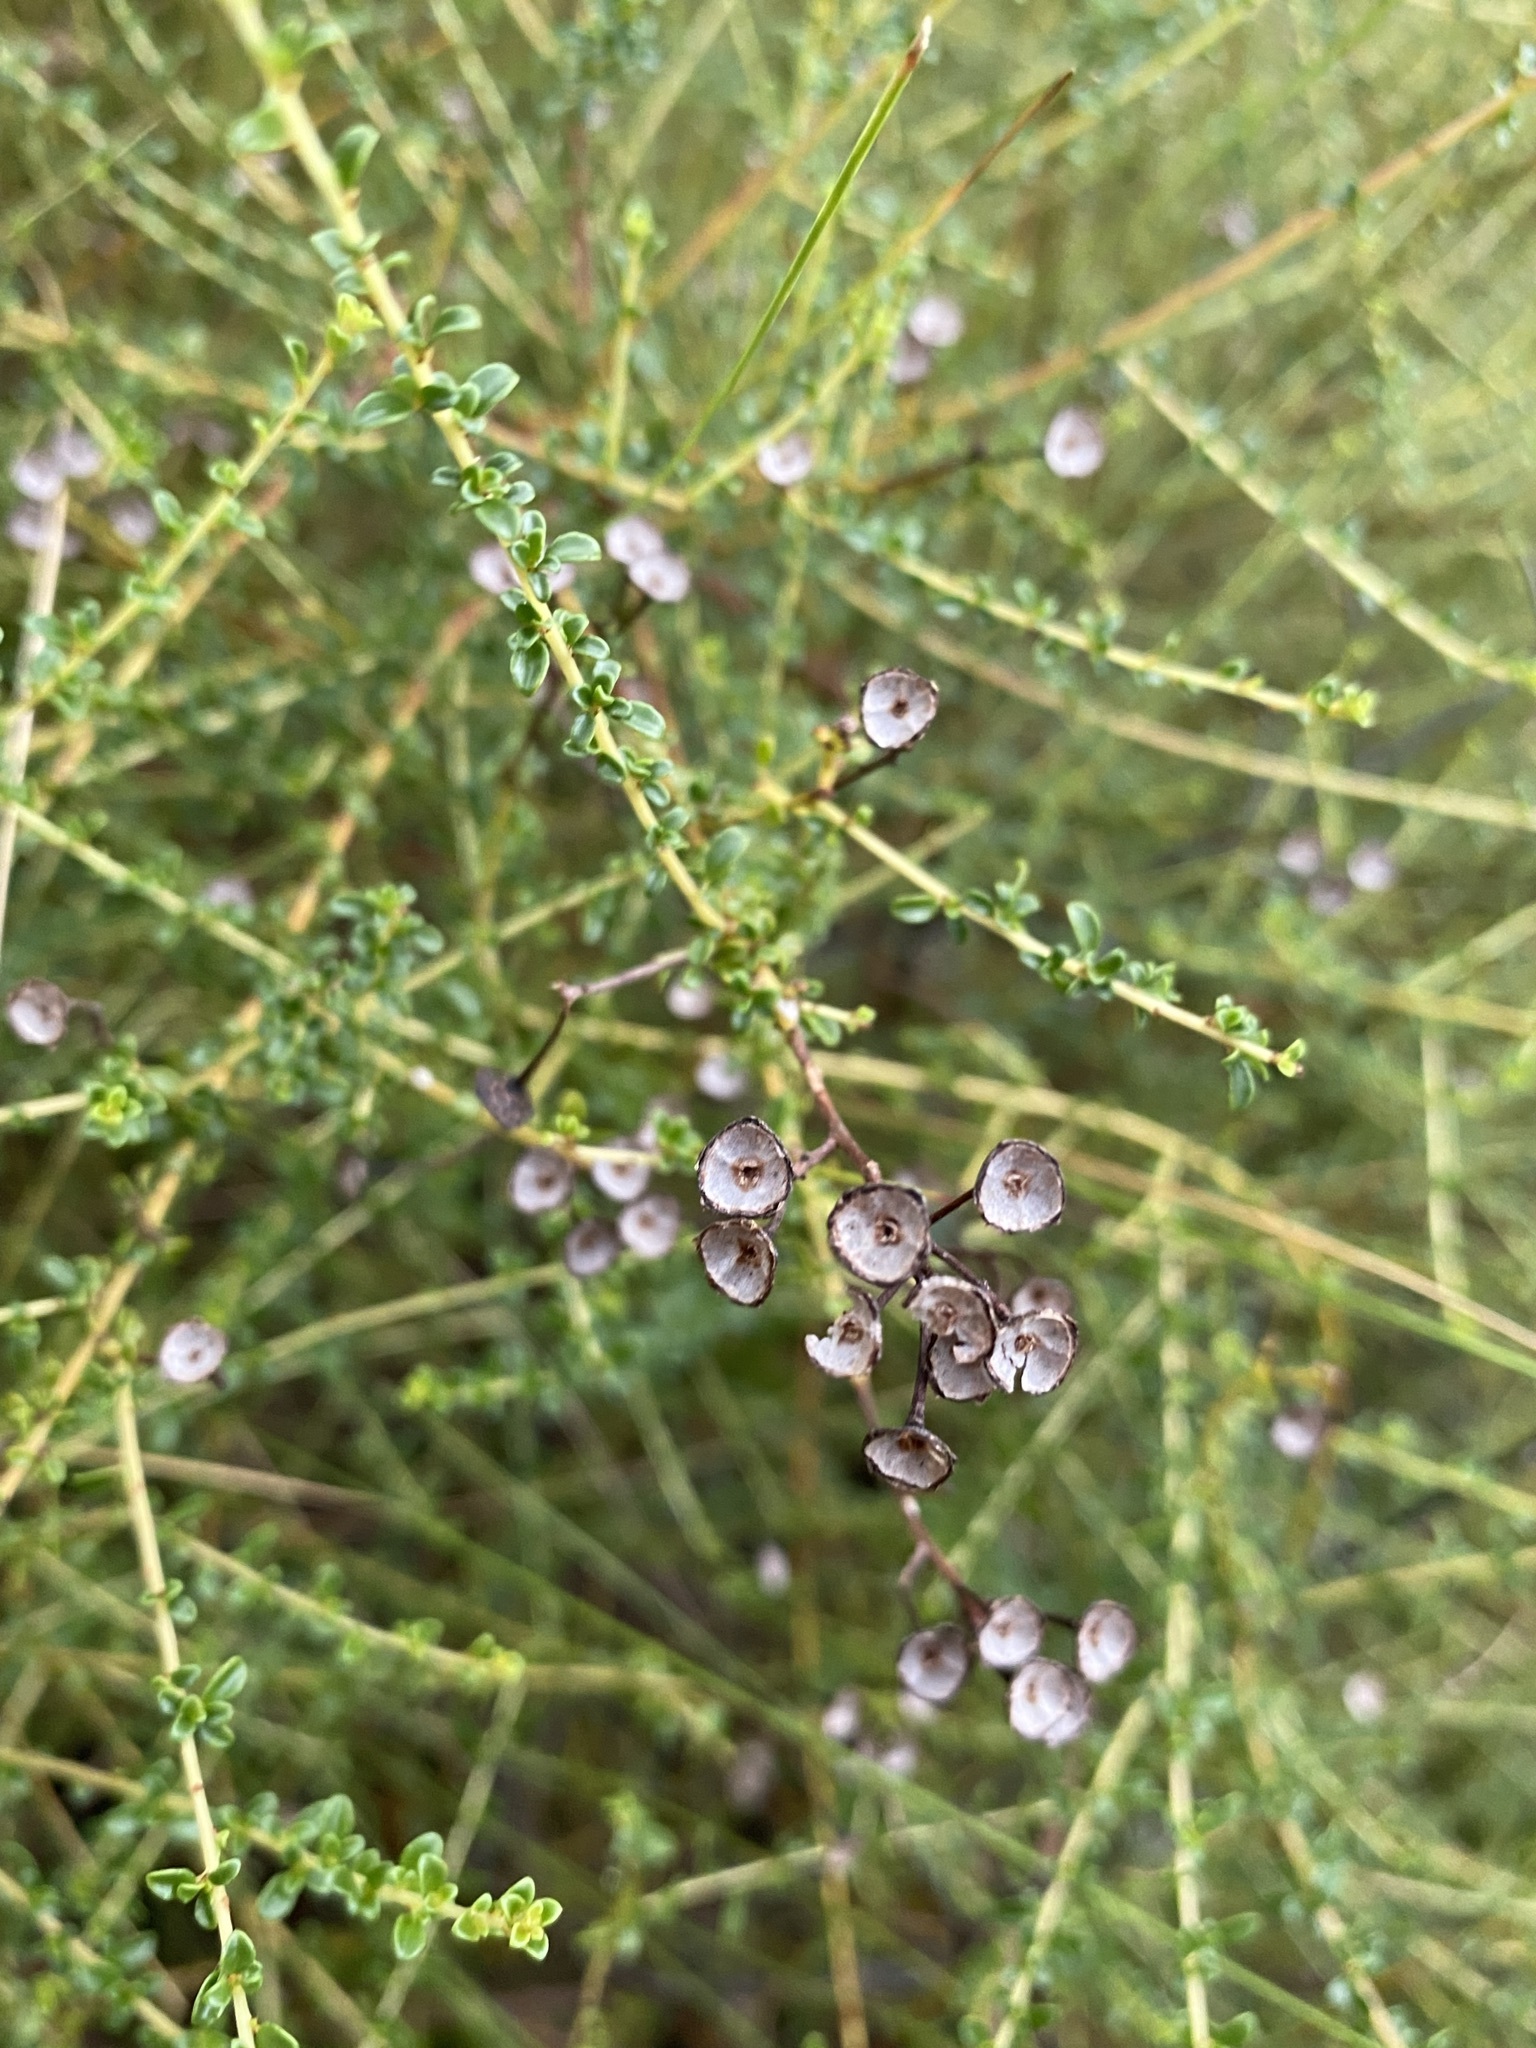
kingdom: Plantae
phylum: Tracheophyta
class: Magnoliopsida
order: Rosales
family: Rhamnaceae
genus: Ceanothus
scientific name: Ceanothus microphyllus
